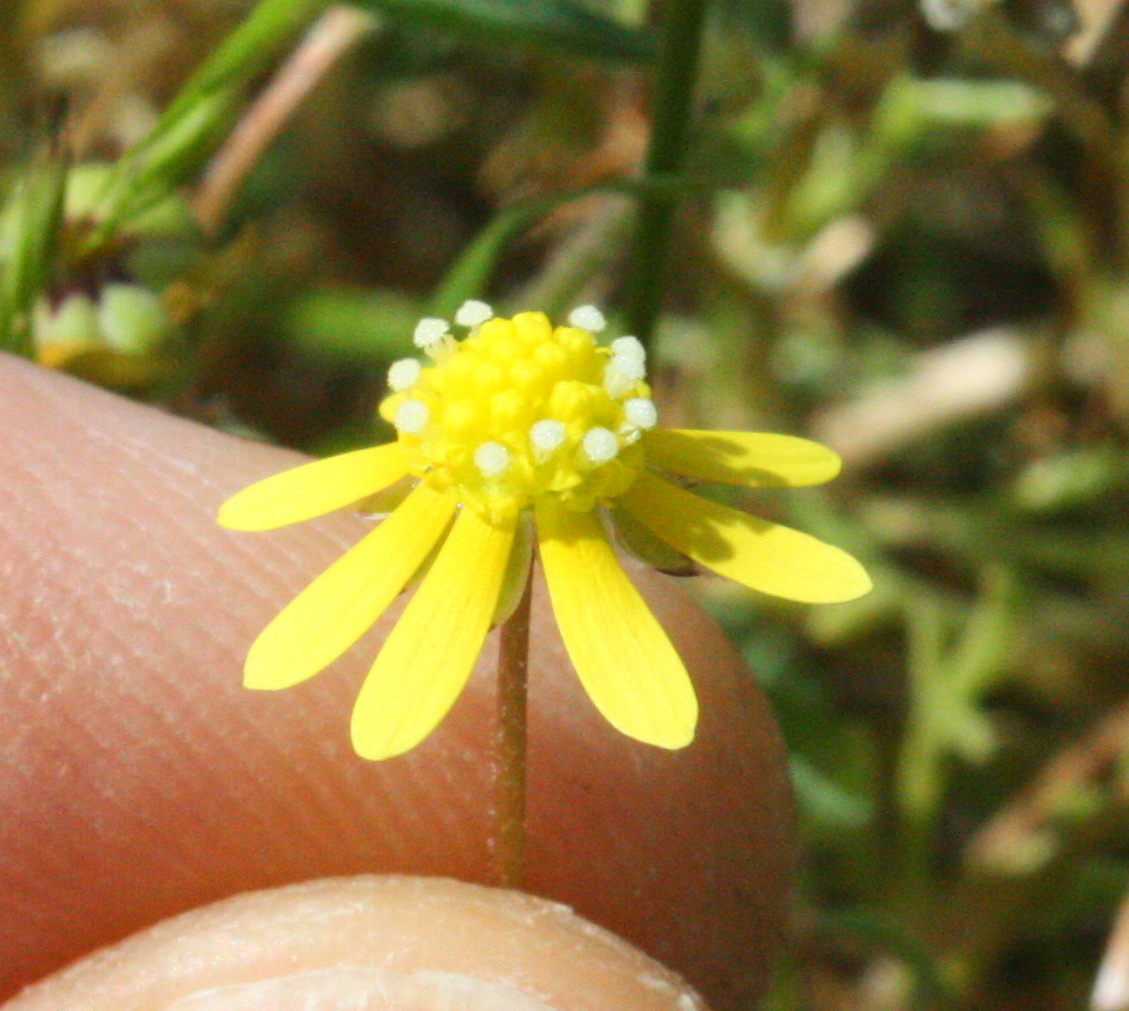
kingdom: Plantae
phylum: Tracheophyta
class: Magnoliopsida
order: Asterales
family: Asteraceae
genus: Blennosperma
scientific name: Blennosperma nanum
